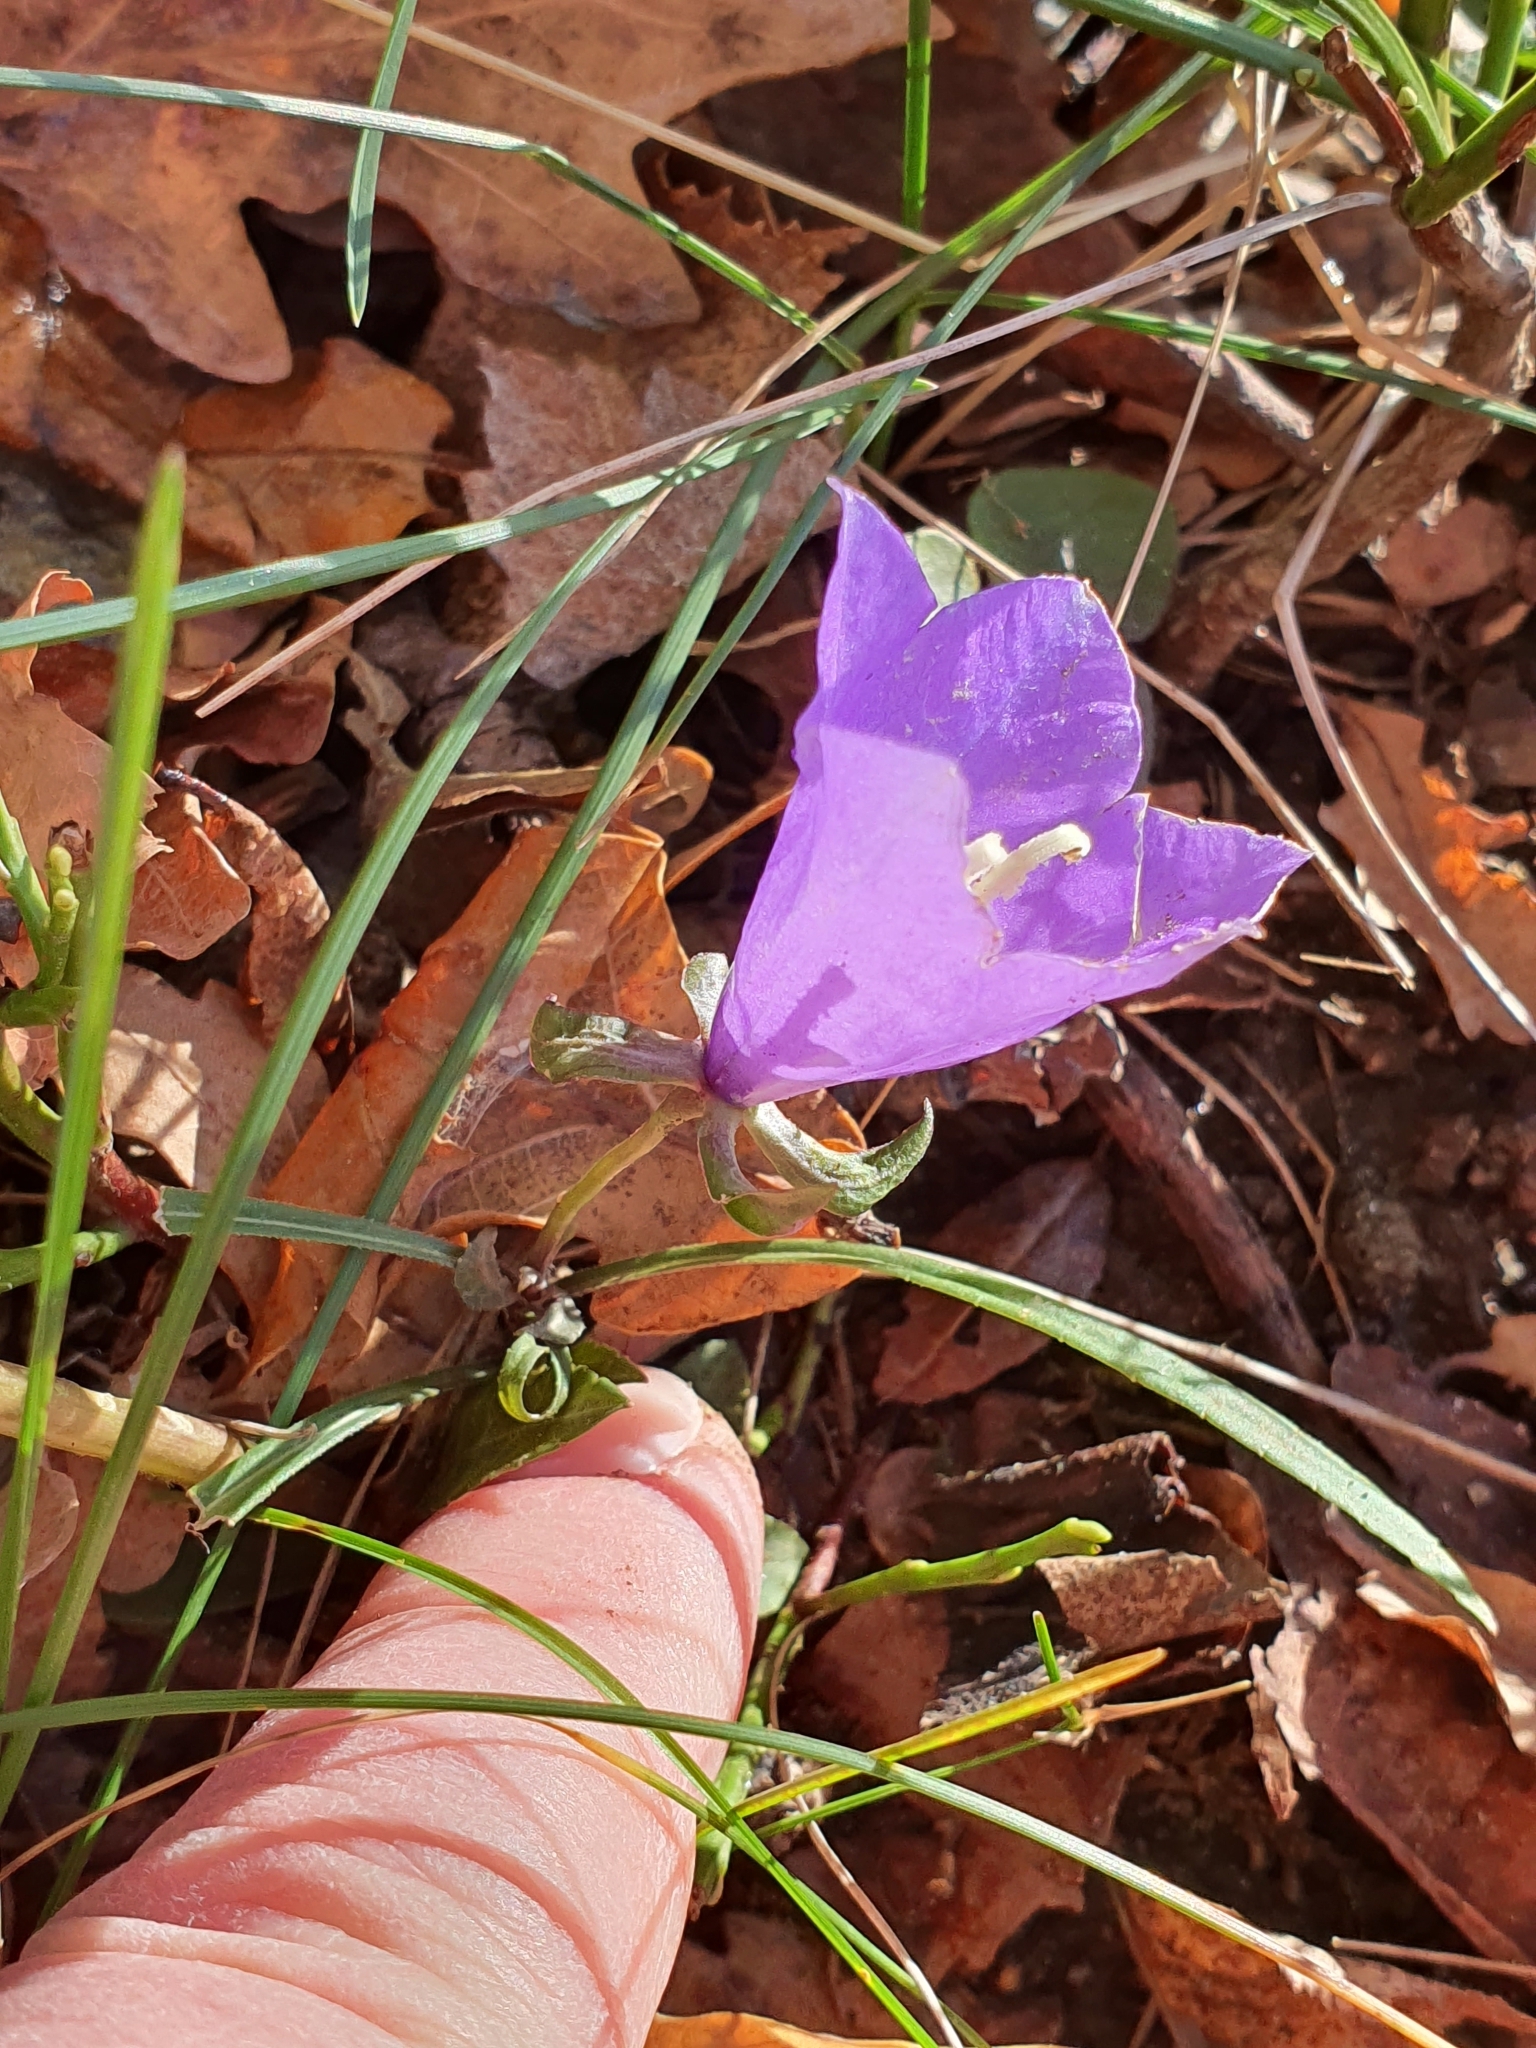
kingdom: Plantae
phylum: Tracheophyta
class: Magnoliopsida
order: Asterales
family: Campanulaceae
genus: Campanula
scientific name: Campanula persicifolia
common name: Peach-leaved bellflower
